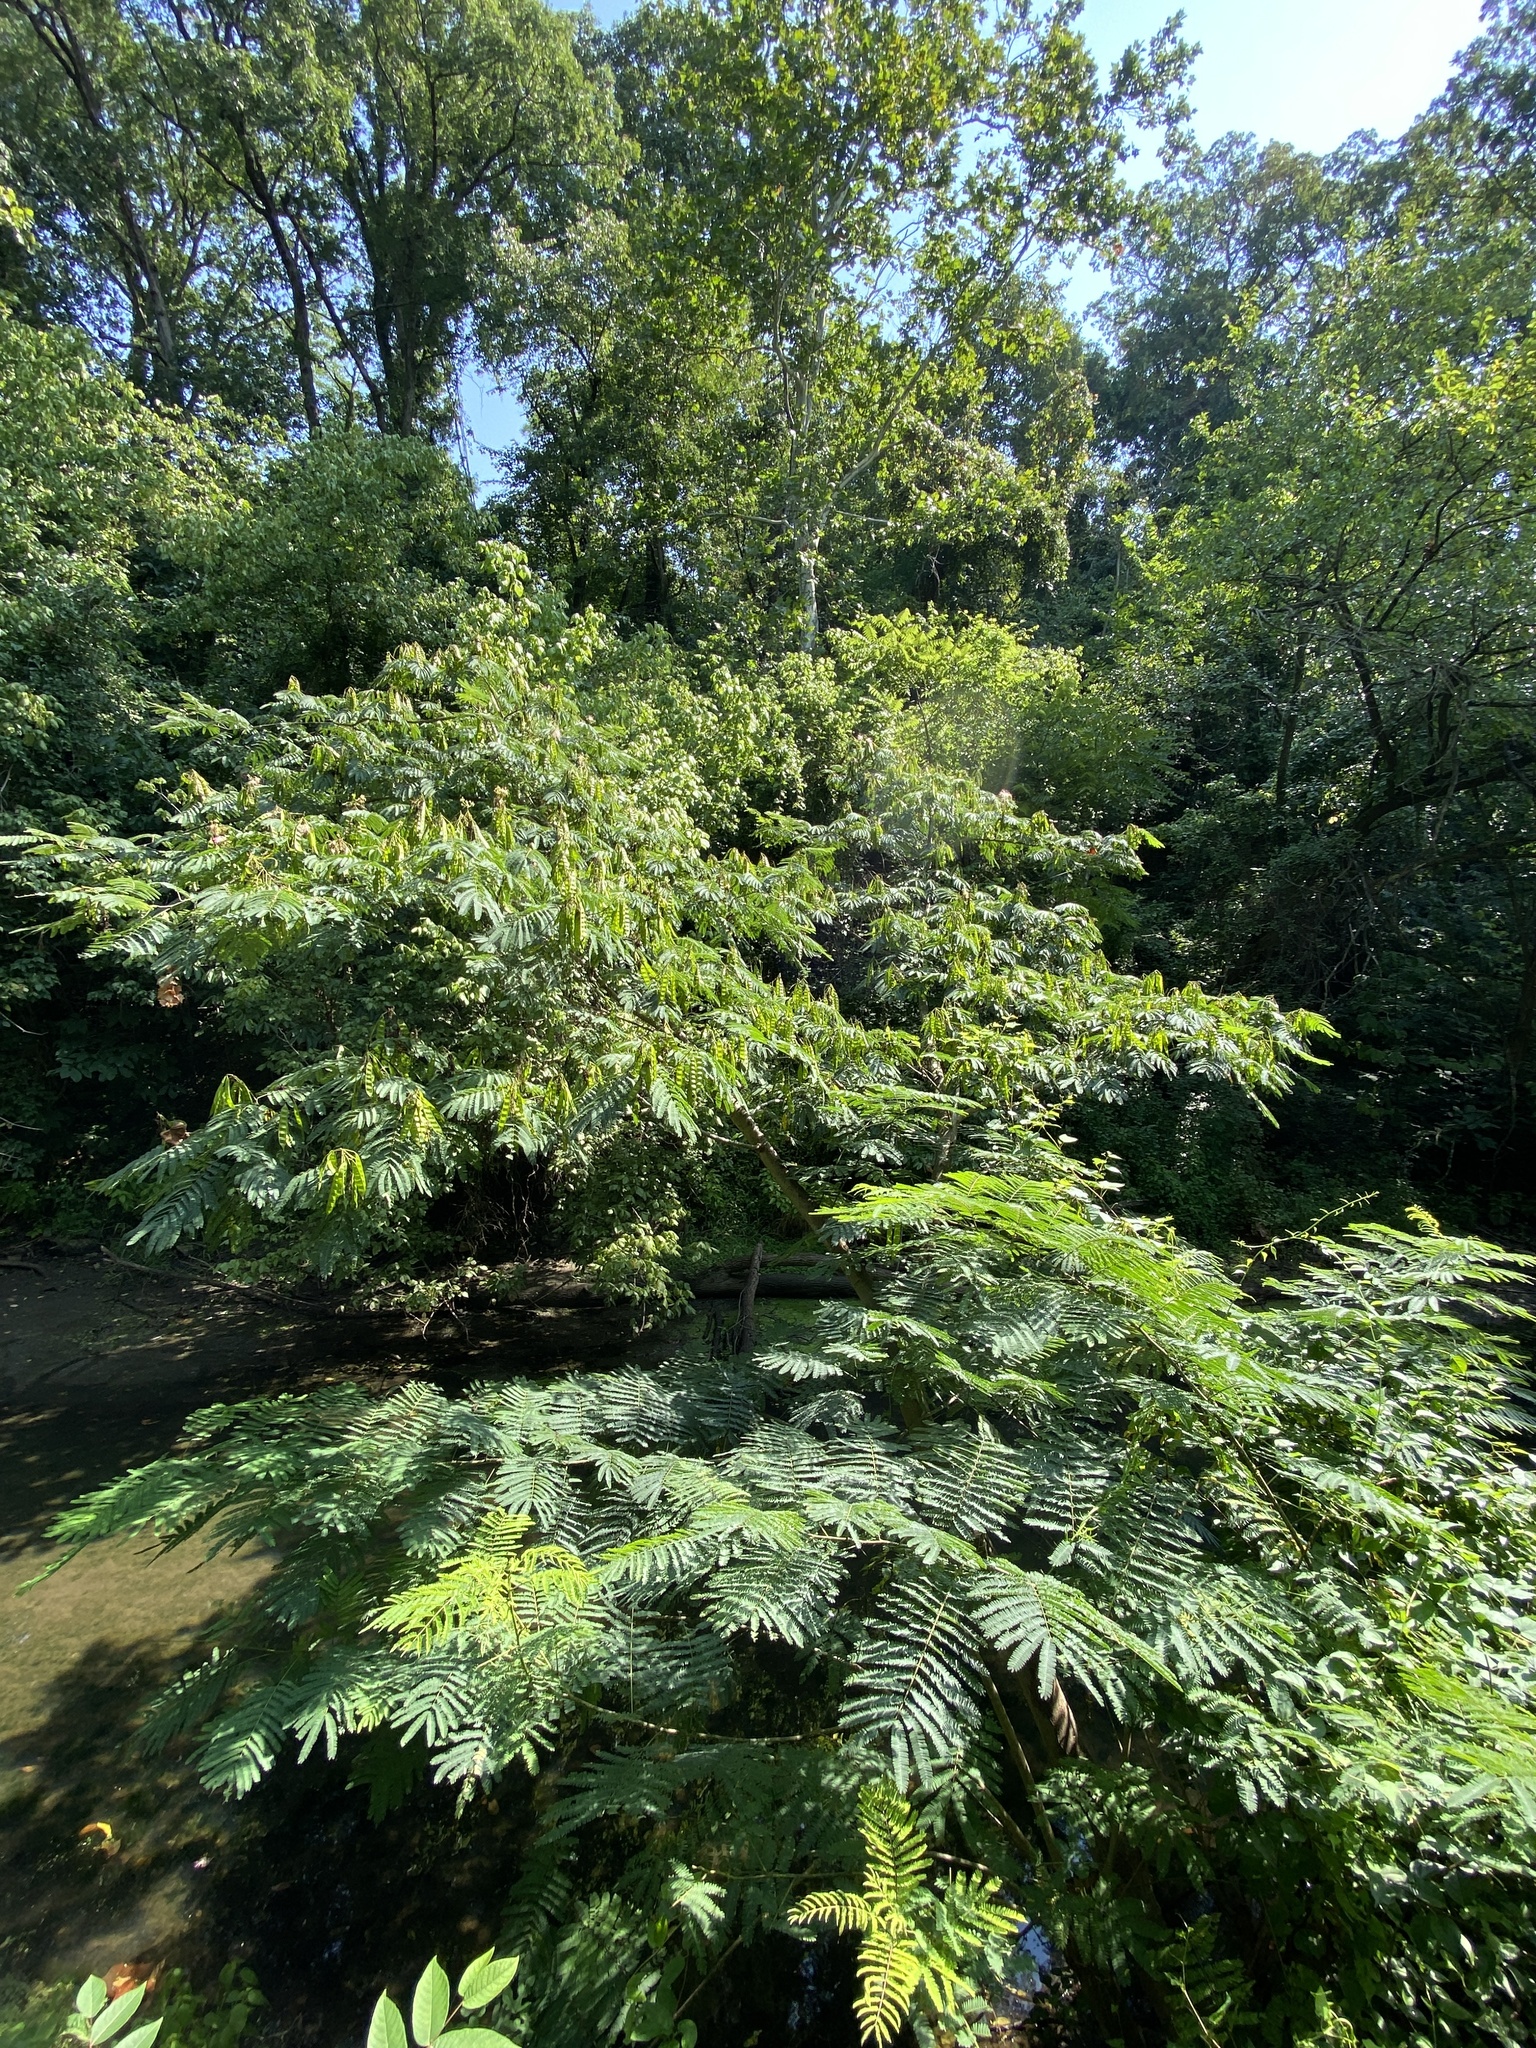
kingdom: Plantae
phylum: Tracheophyta
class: Magnoliopsida
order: Fabales
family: Fabaceae
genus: Albizia
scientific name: Albizia julibrissin
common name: Silktree
